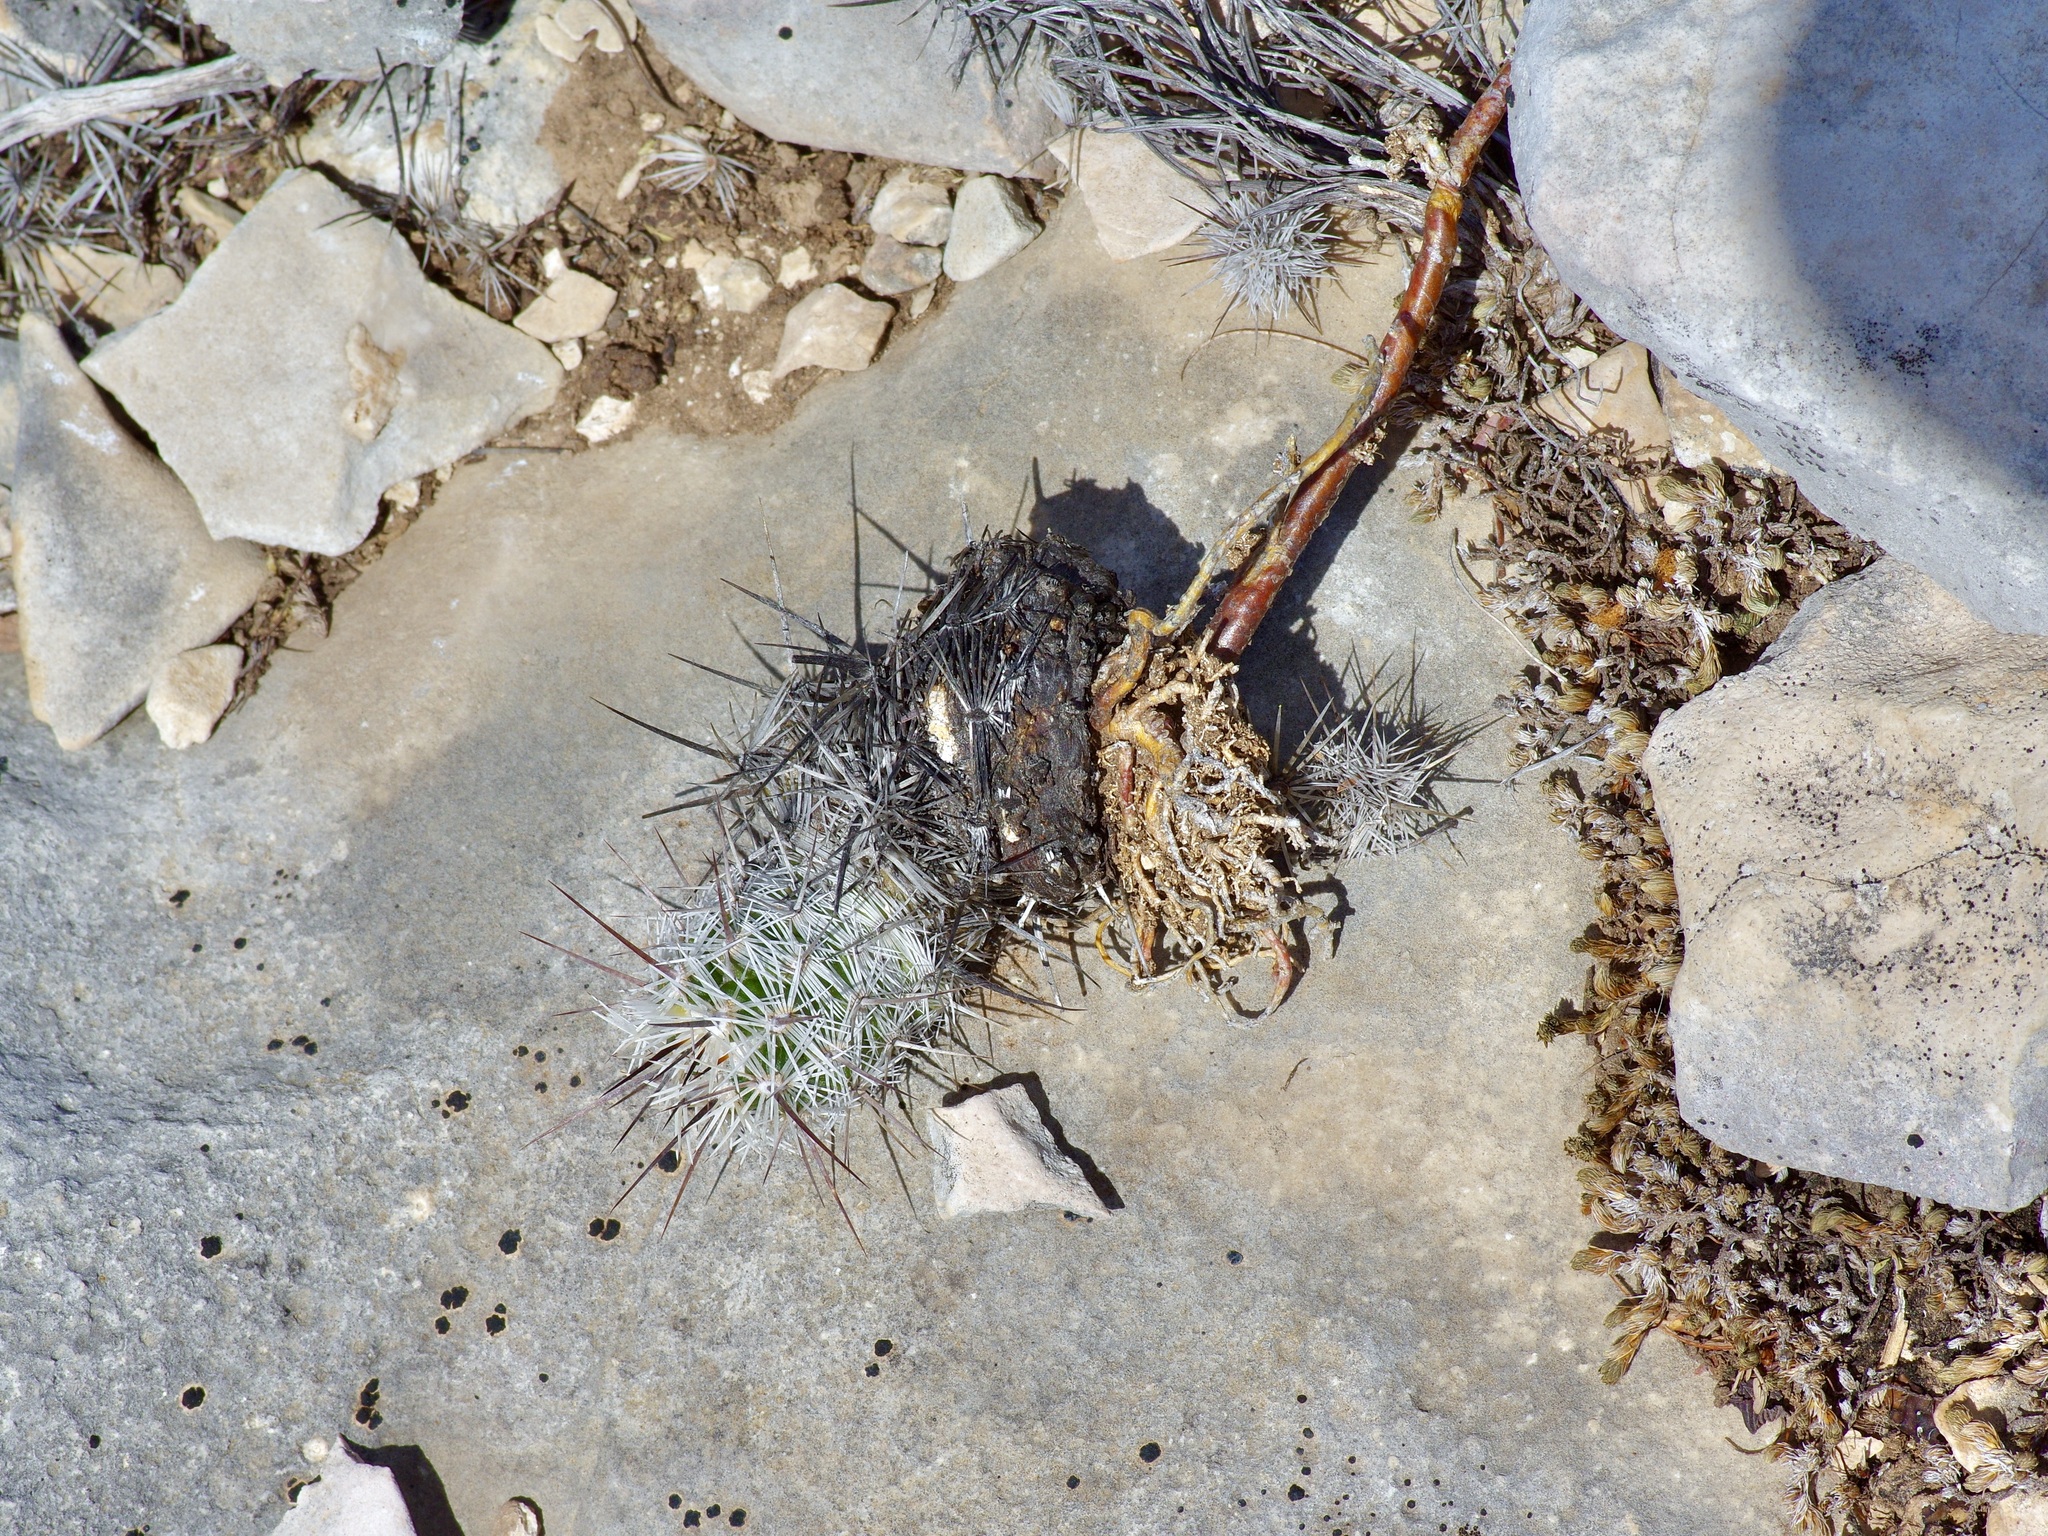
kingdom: Plantae
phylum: Tracheophyta
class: Magnoliopsida
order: Caryophyllales
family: Cactaceae
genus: Cochemiea
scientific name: Cochemiea conoidea
